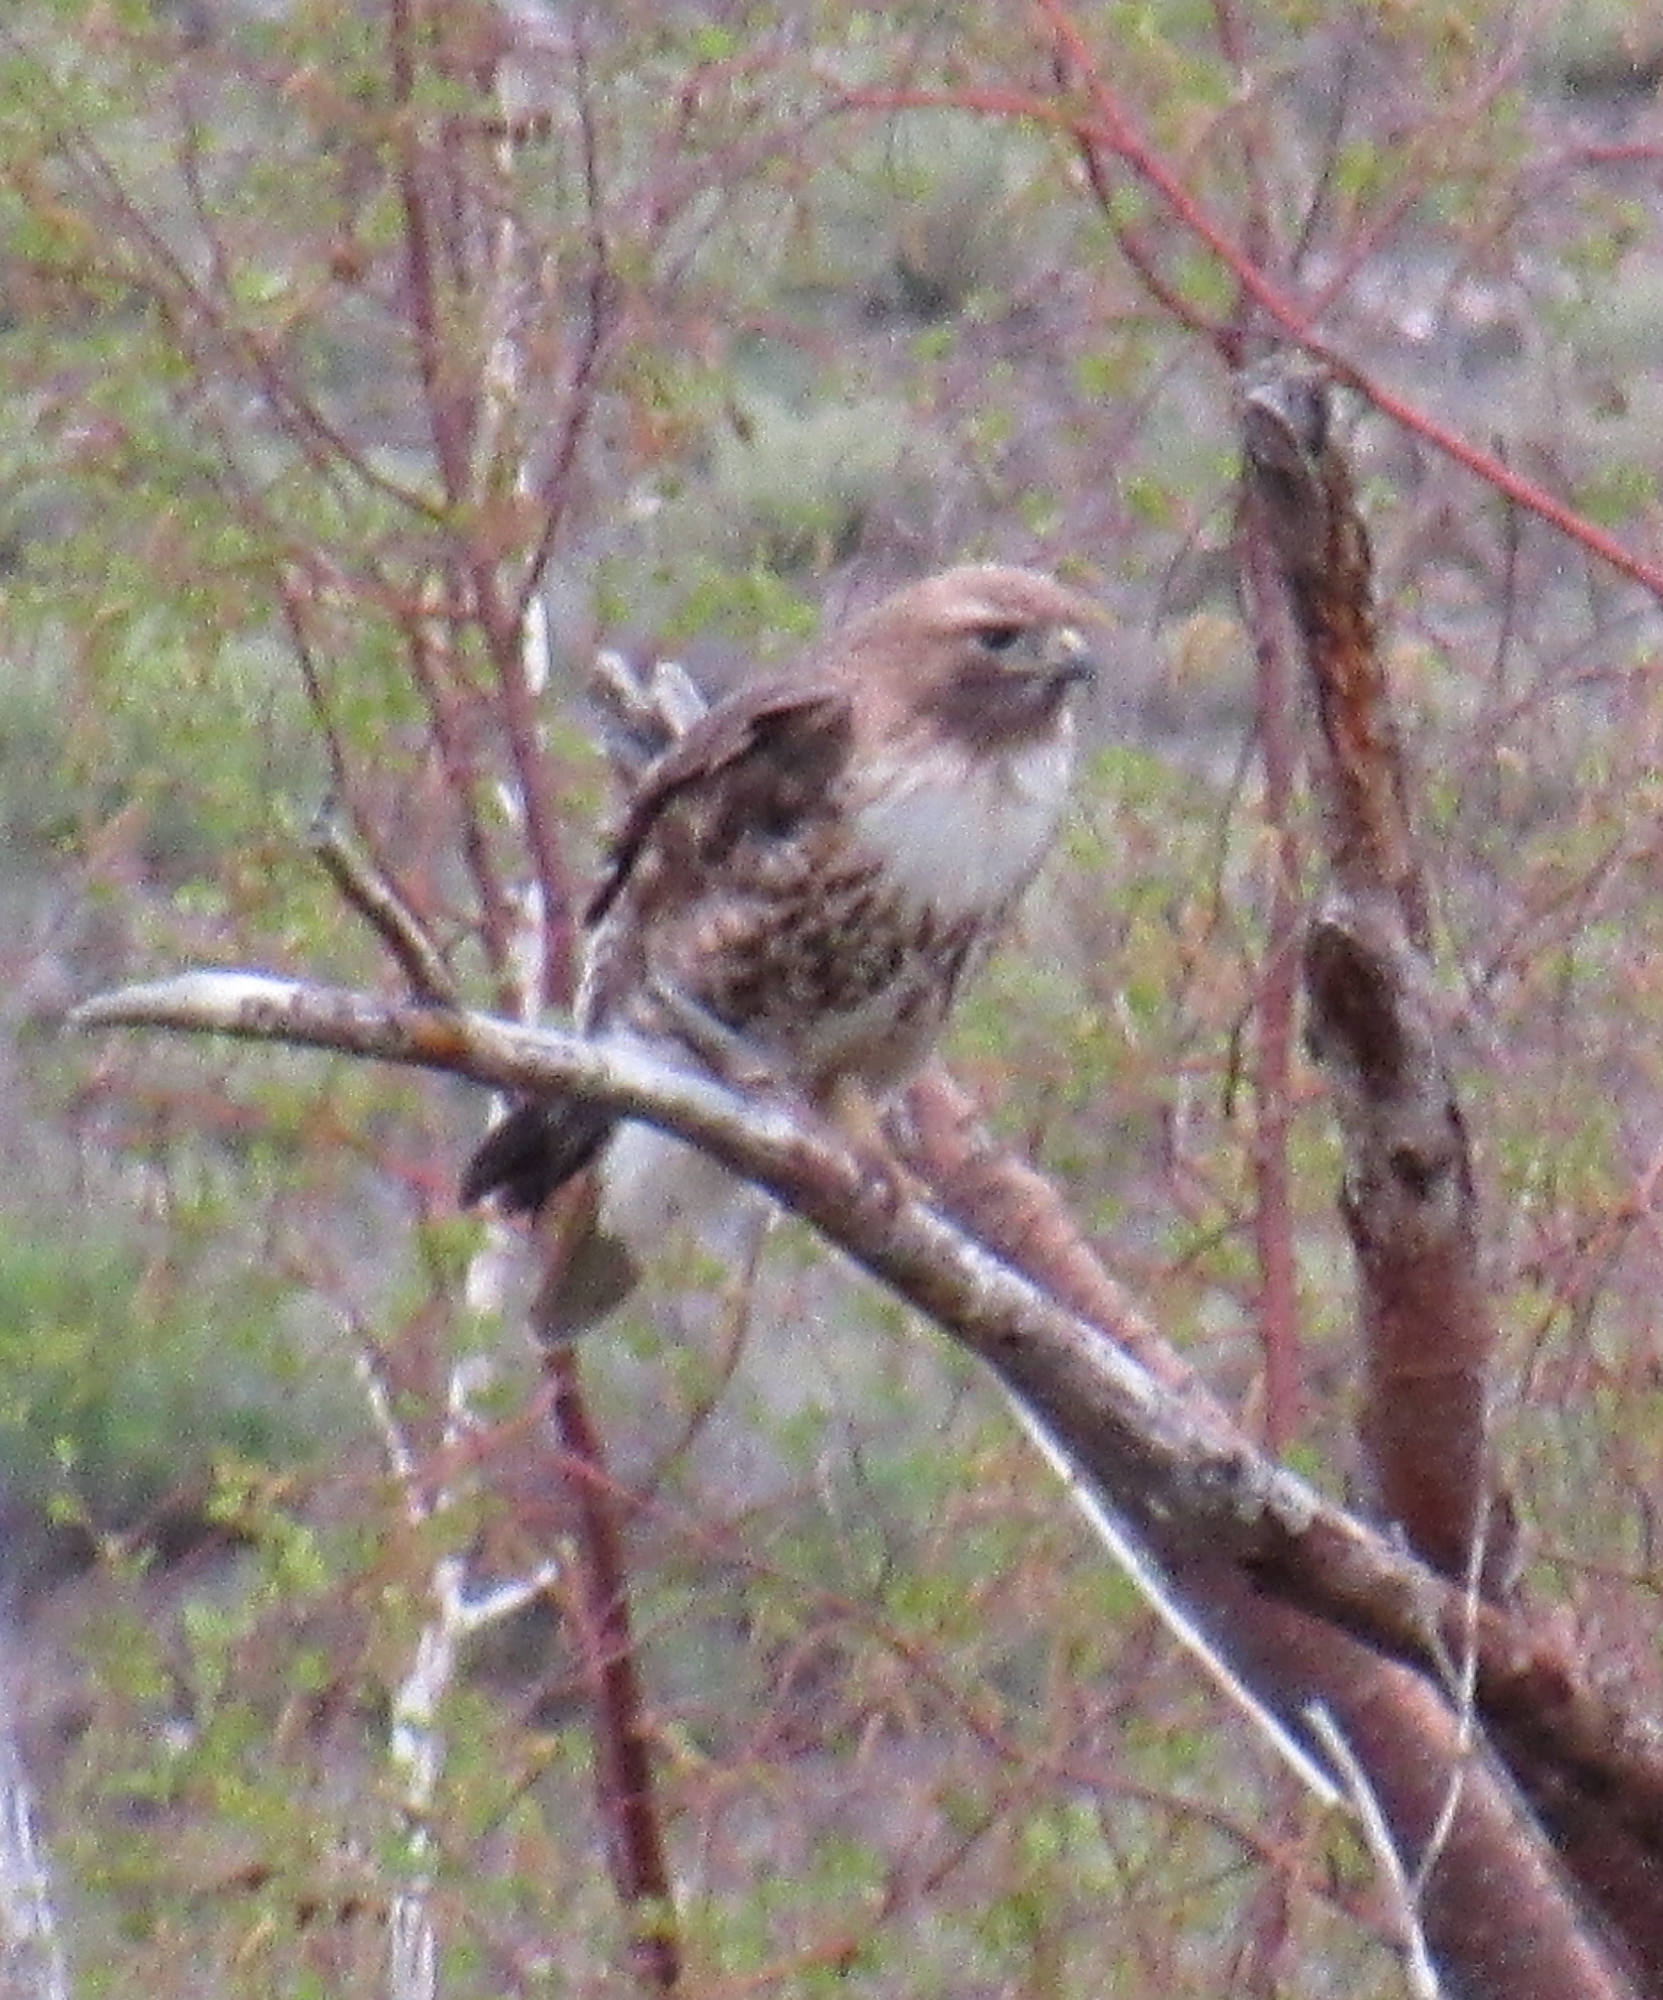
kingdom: Animalia
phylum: Chordata
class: Aves
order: Accipitriformes
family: Accipitridae
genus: Buteo
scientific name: Buteo jamaicensis
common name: Red-tailed hawk
